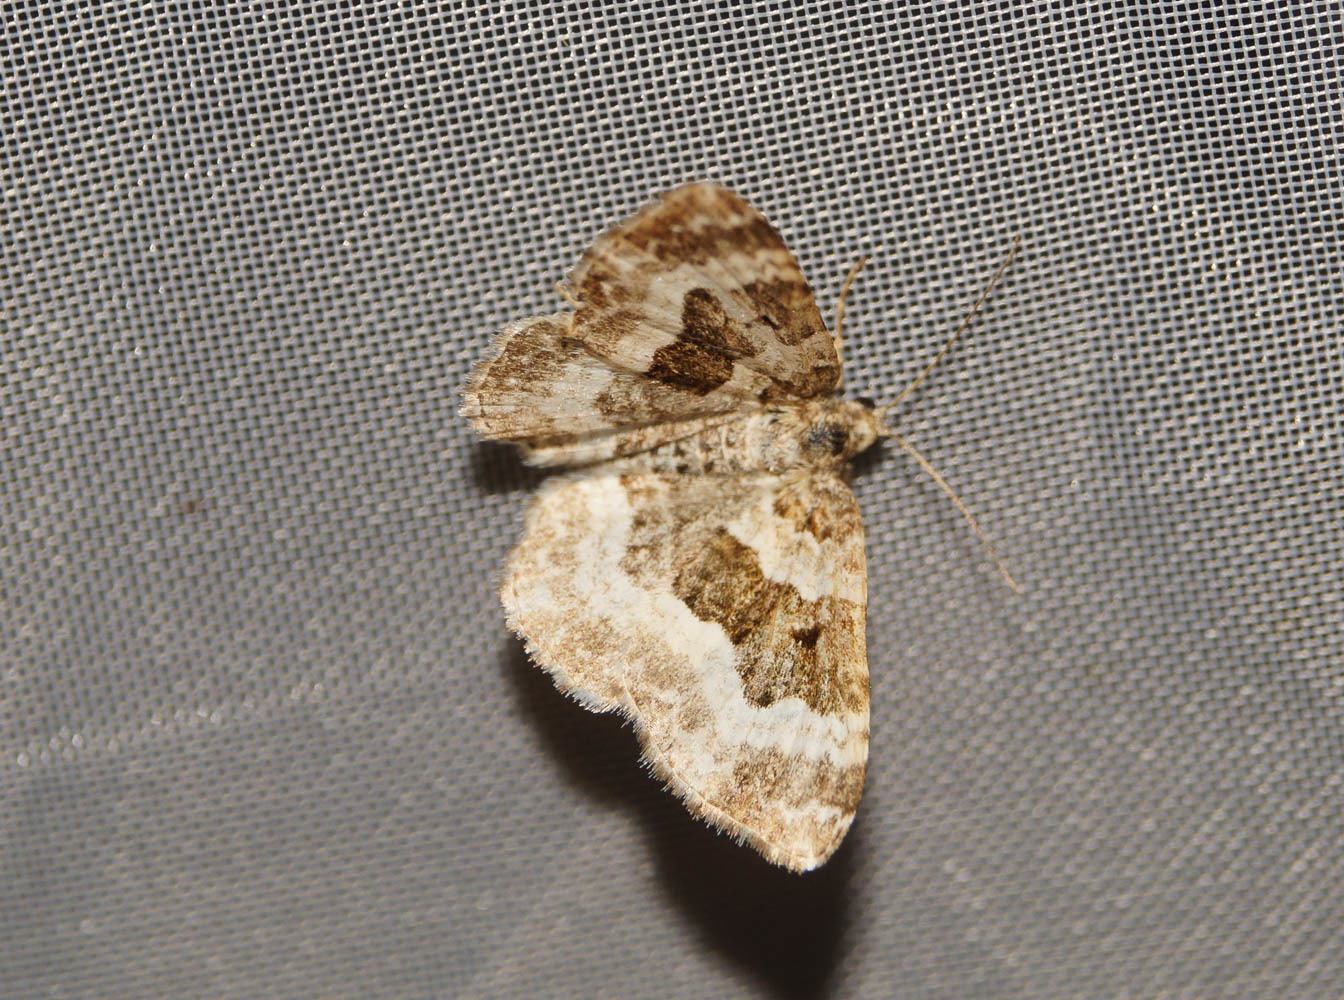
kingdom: Animalia
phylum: Arthropoda
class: Insecta
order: Lepidoptera
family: Geometridae
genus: Epirrhoe
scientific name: Epirrhoe alternata
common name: Common carpet
